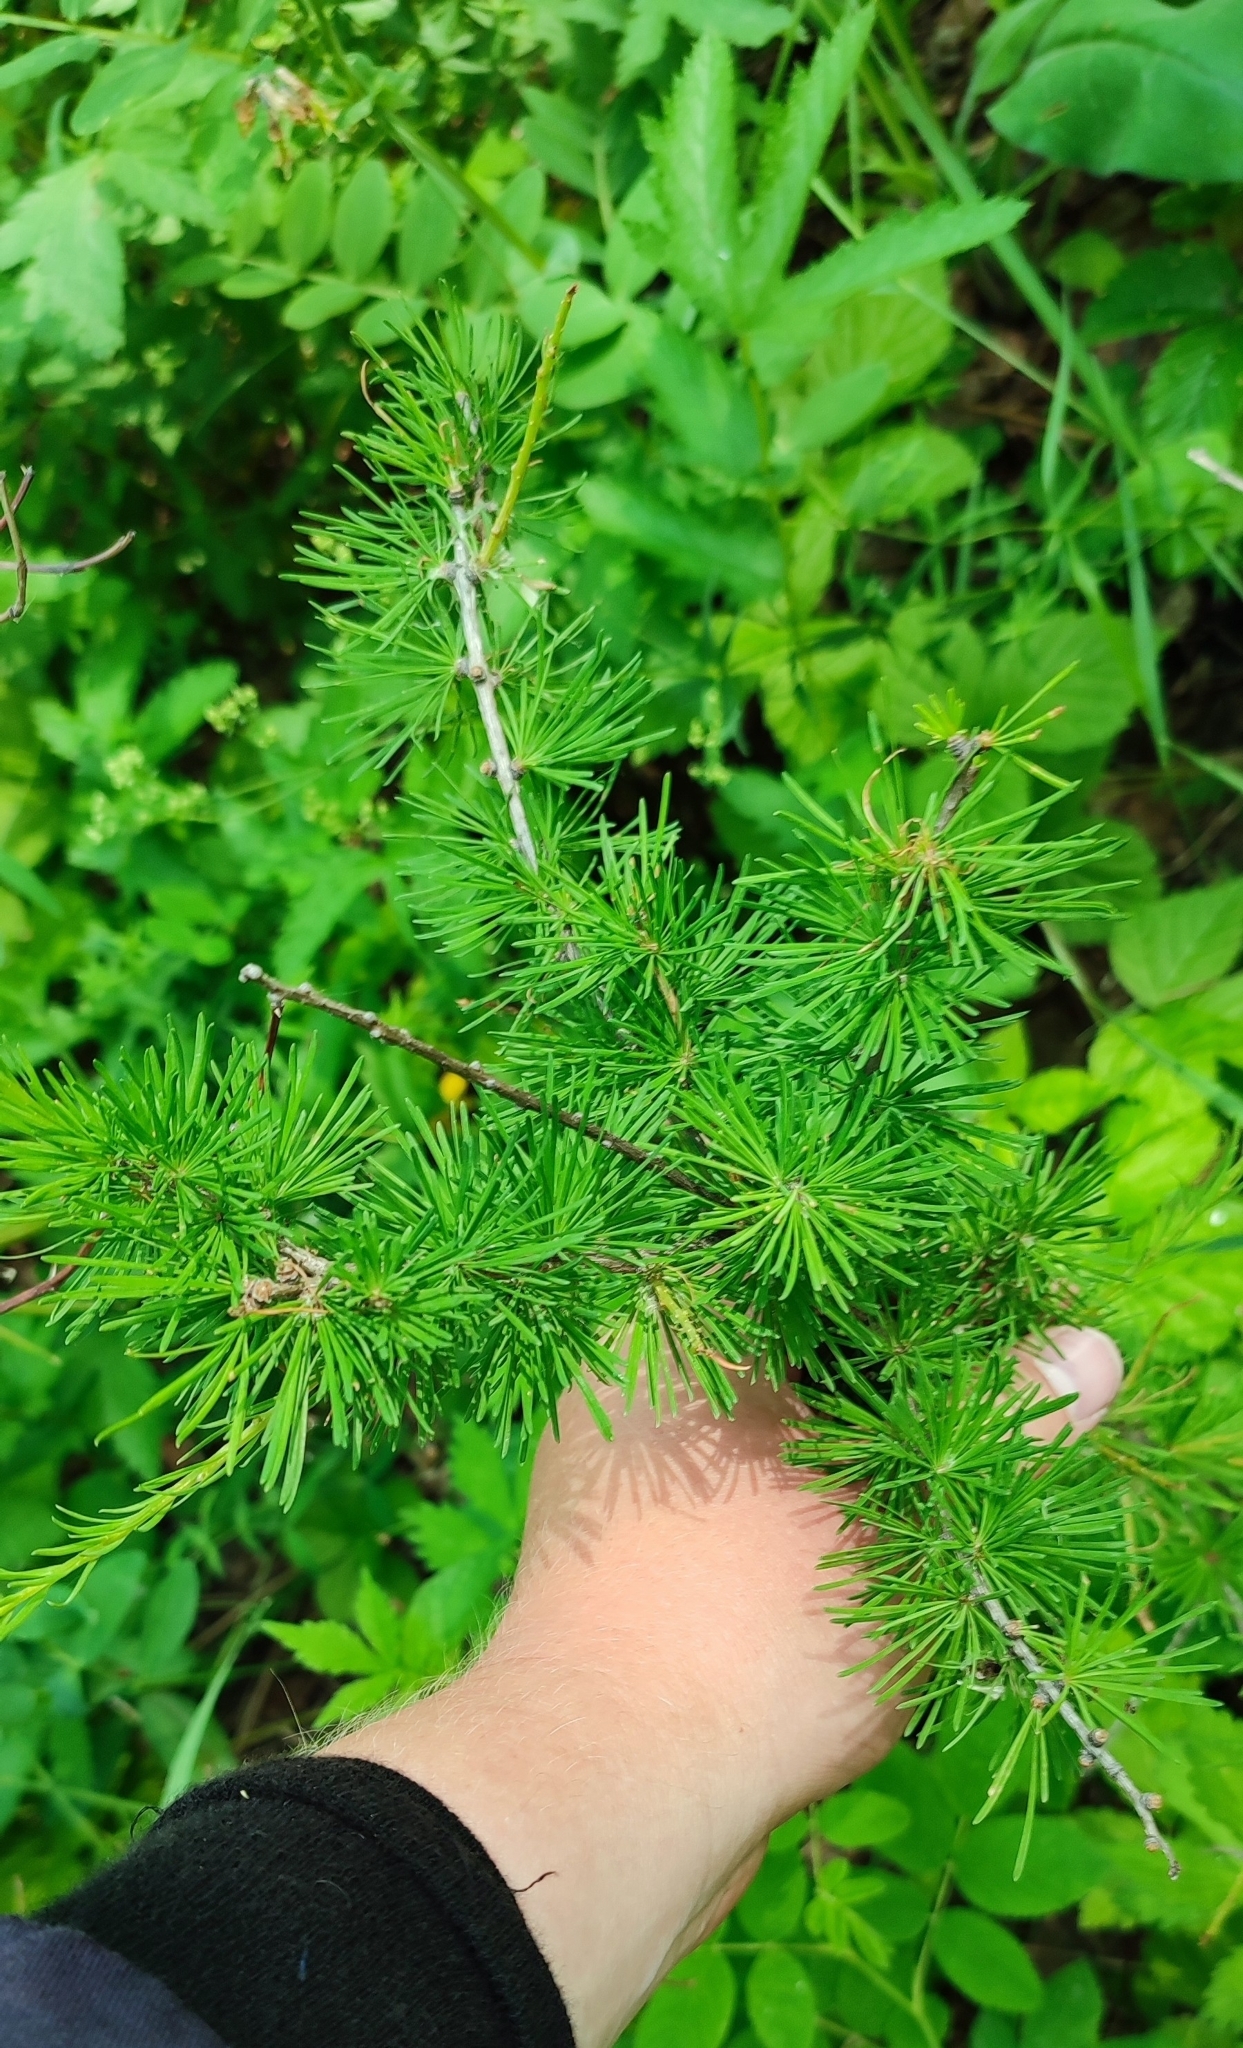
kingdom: Plantae
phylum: Tracheophyta
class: Pinopsida
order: Pinales
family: Pinaceae
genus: Larix
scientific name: Larix sibirica
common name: Siberian larch
